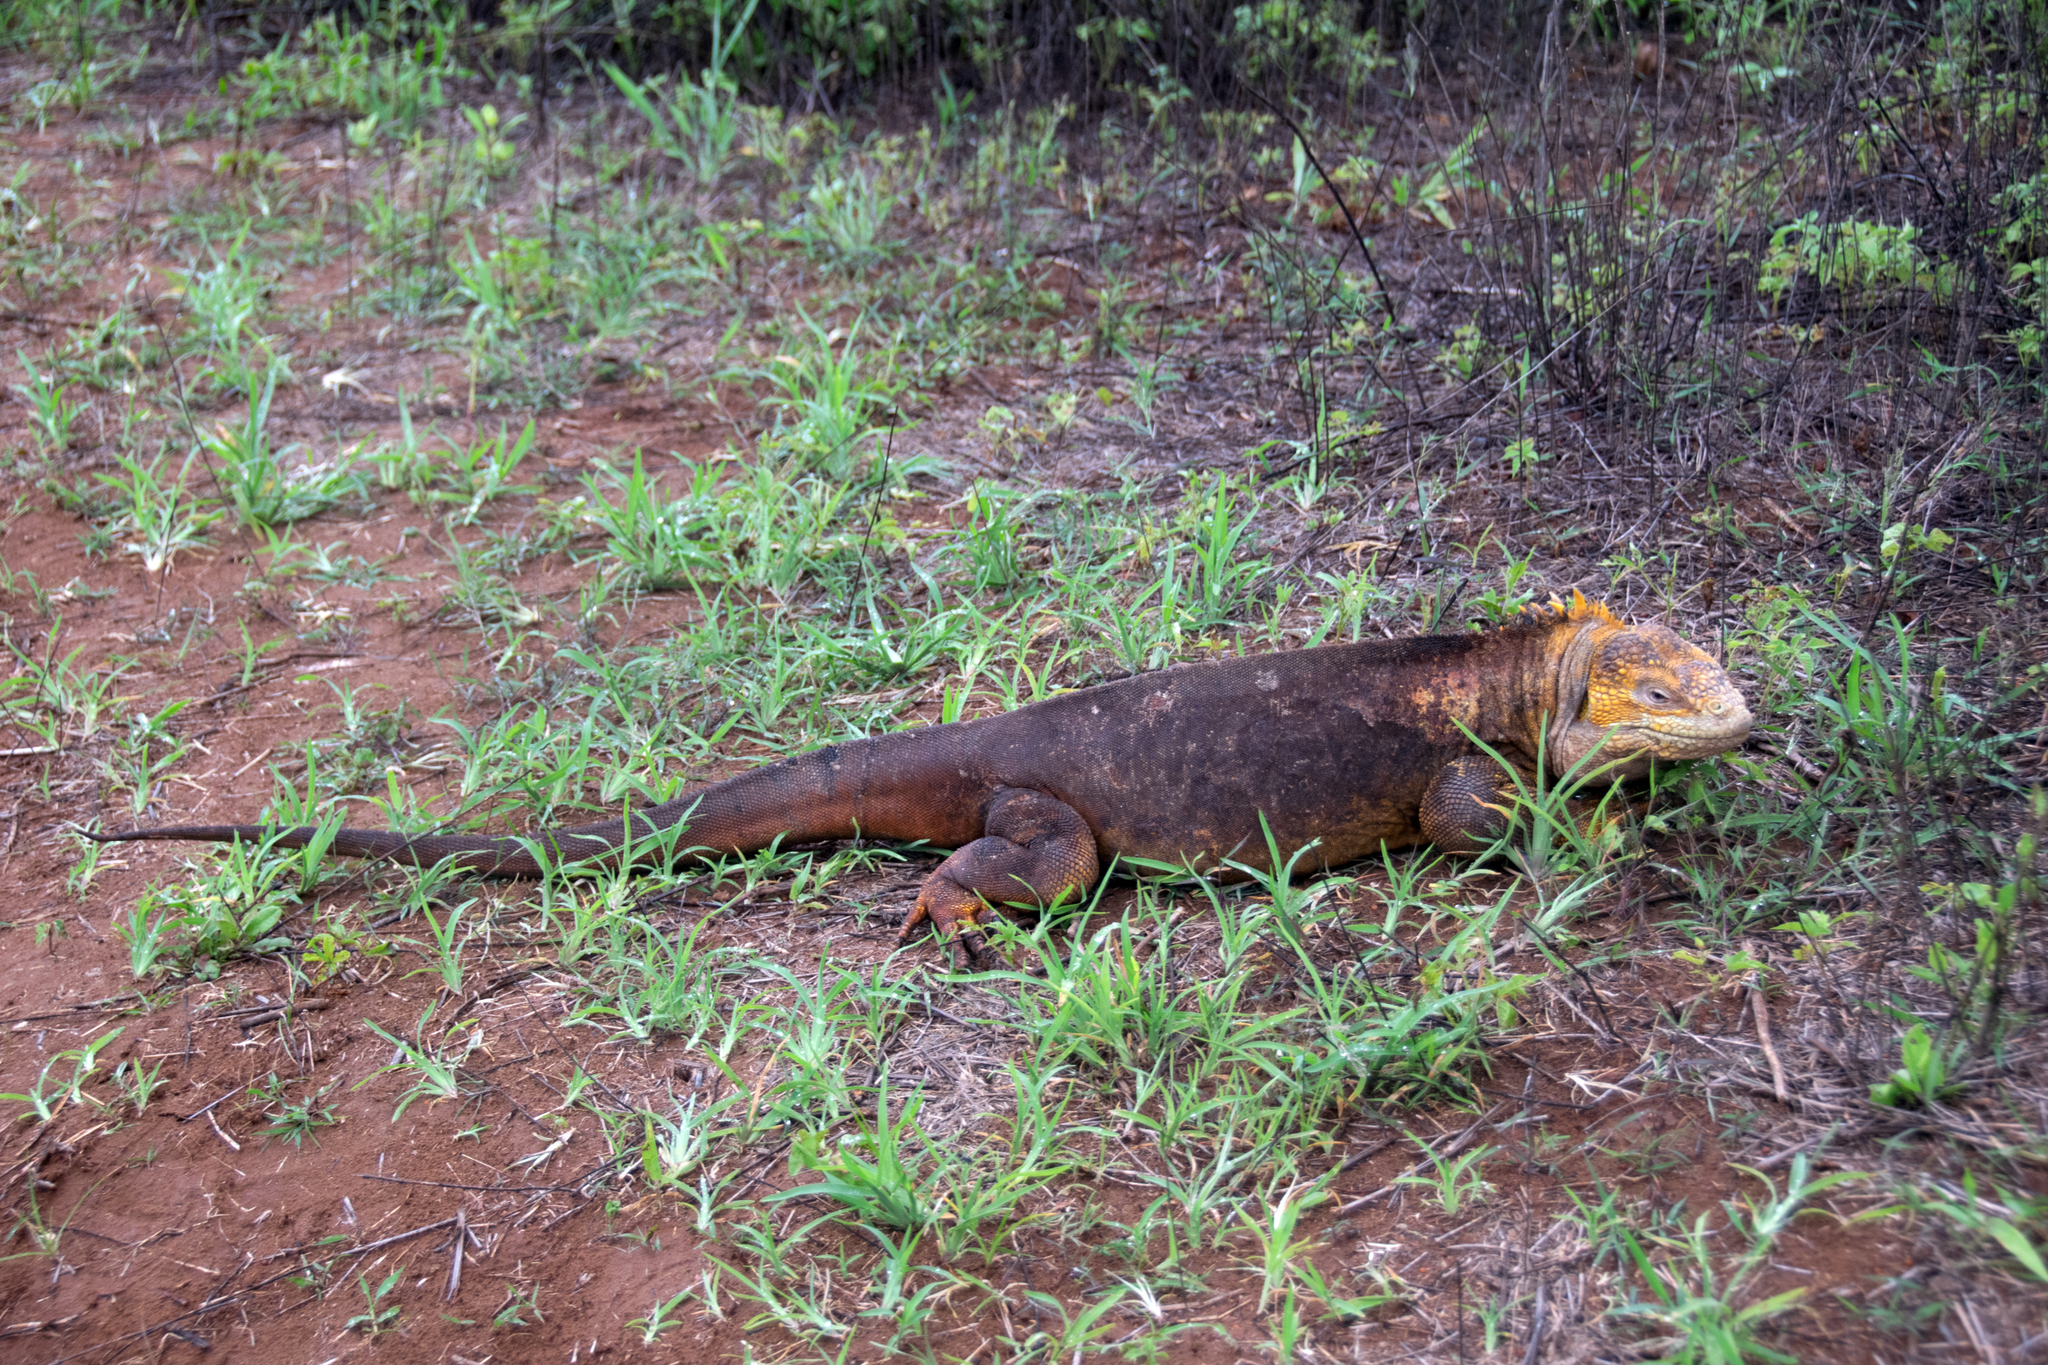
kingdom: Animalia
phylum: Chordata
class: Squamata
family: Iguanidae
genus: Conolophus
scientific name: Conolophus subcristatus
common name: Galapagos land iguana
